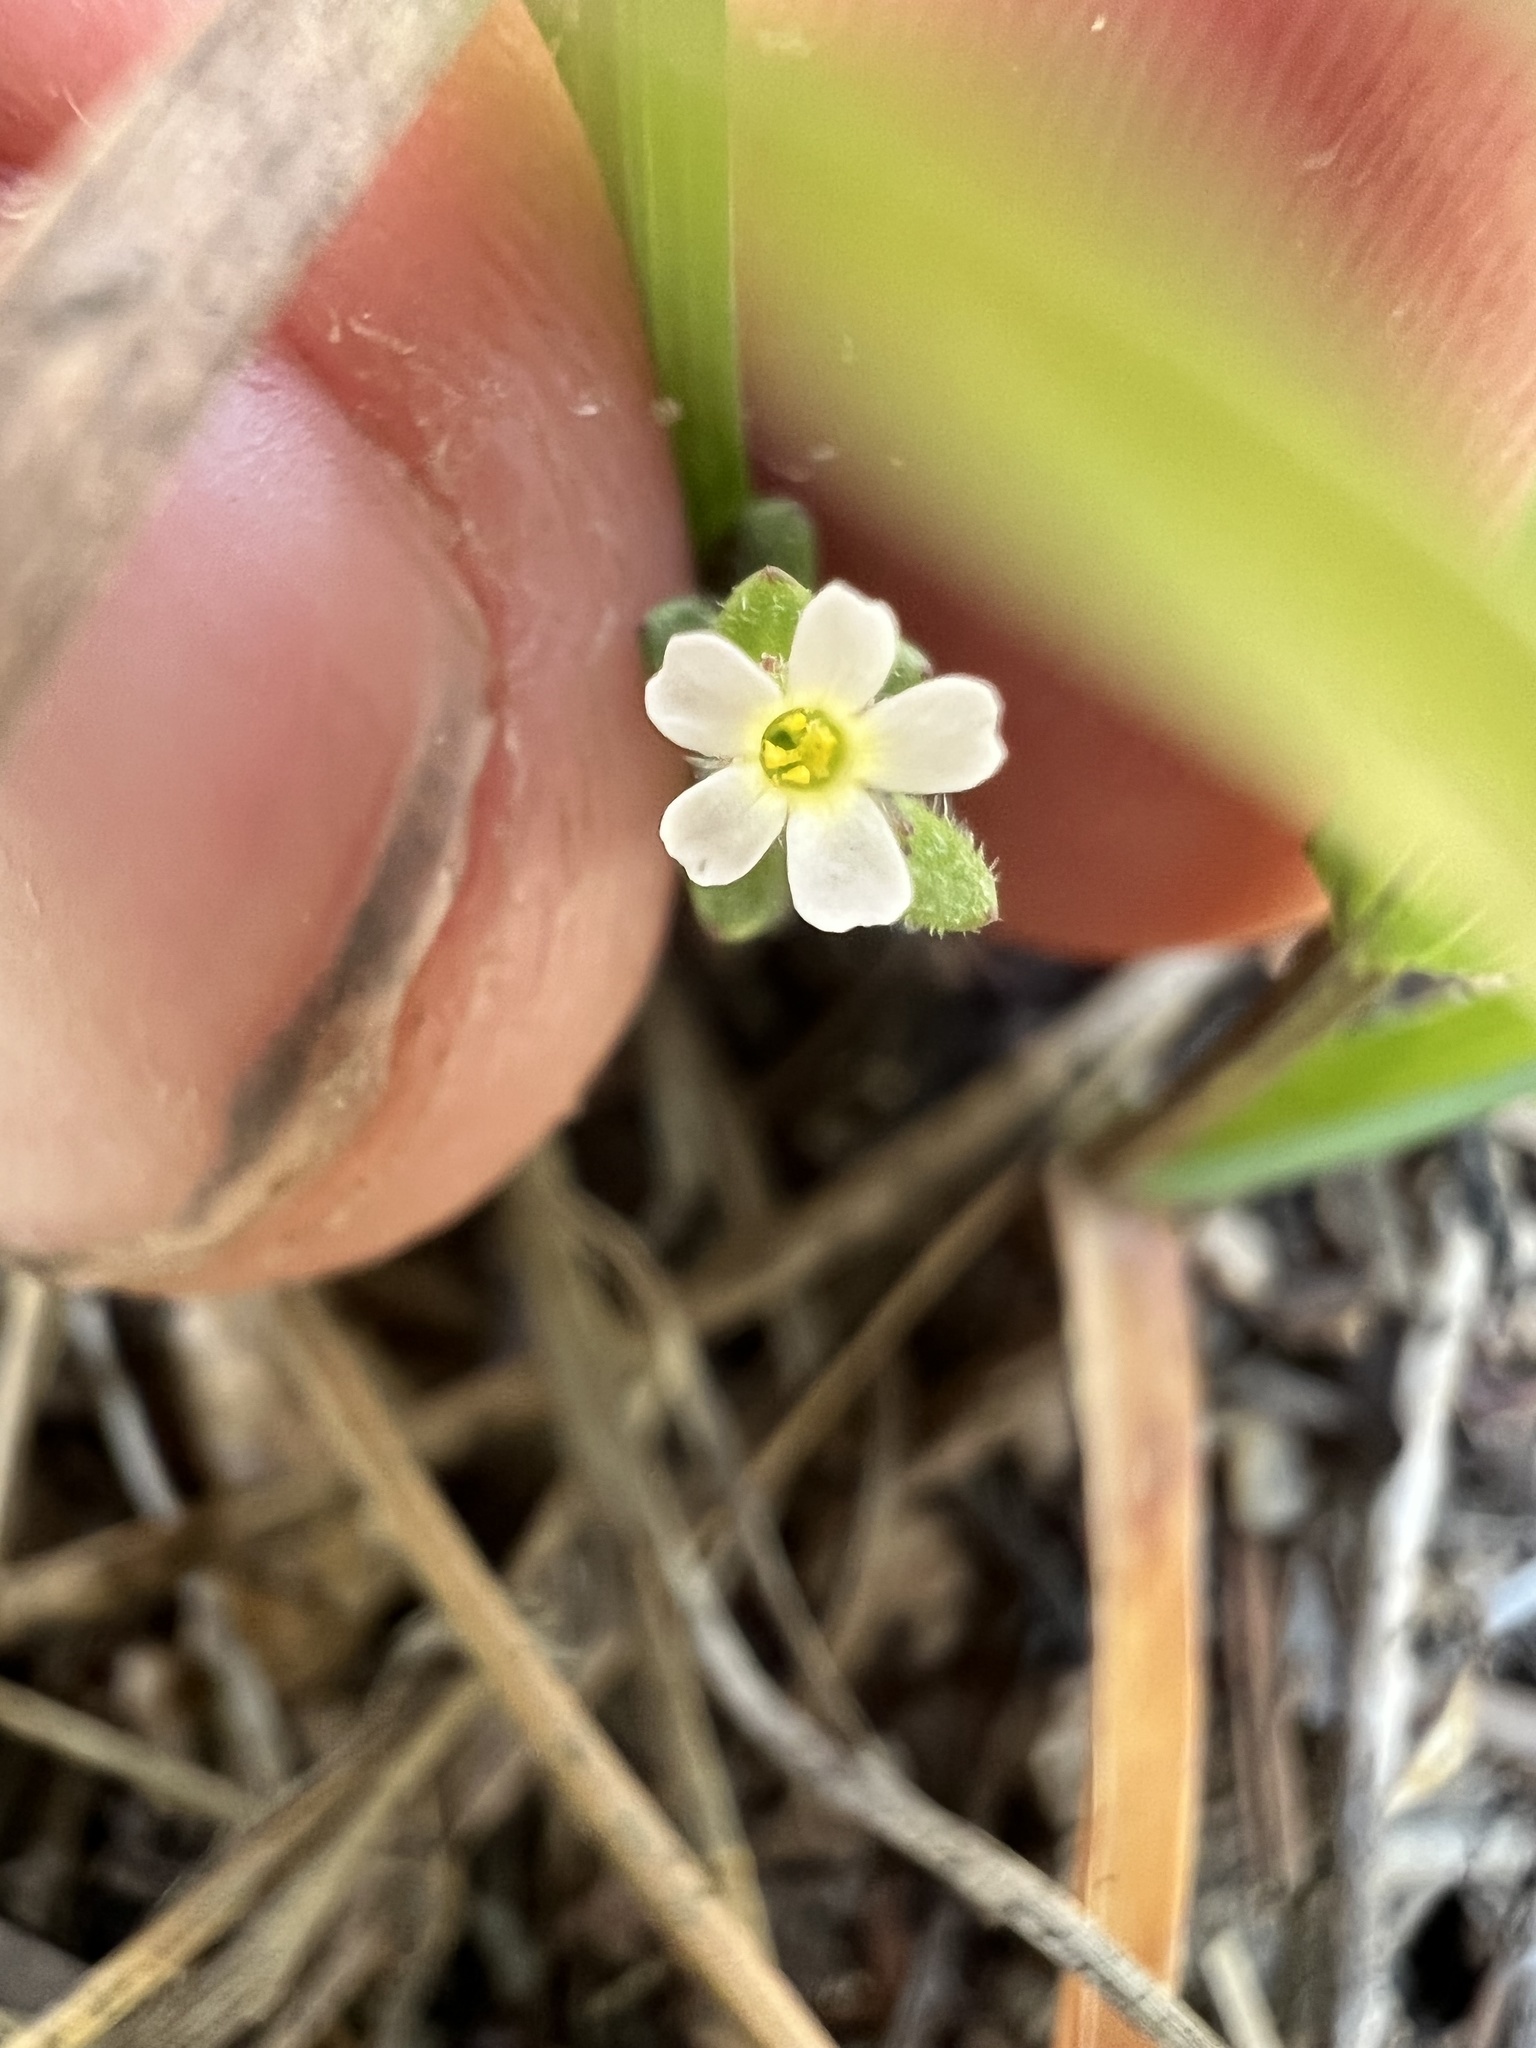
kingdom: Plantae
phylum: Tracheophyta
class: Magnoliopsida
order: Ericales
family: Polemoniaceae
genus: Phlox
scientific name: Phlox gracilis
